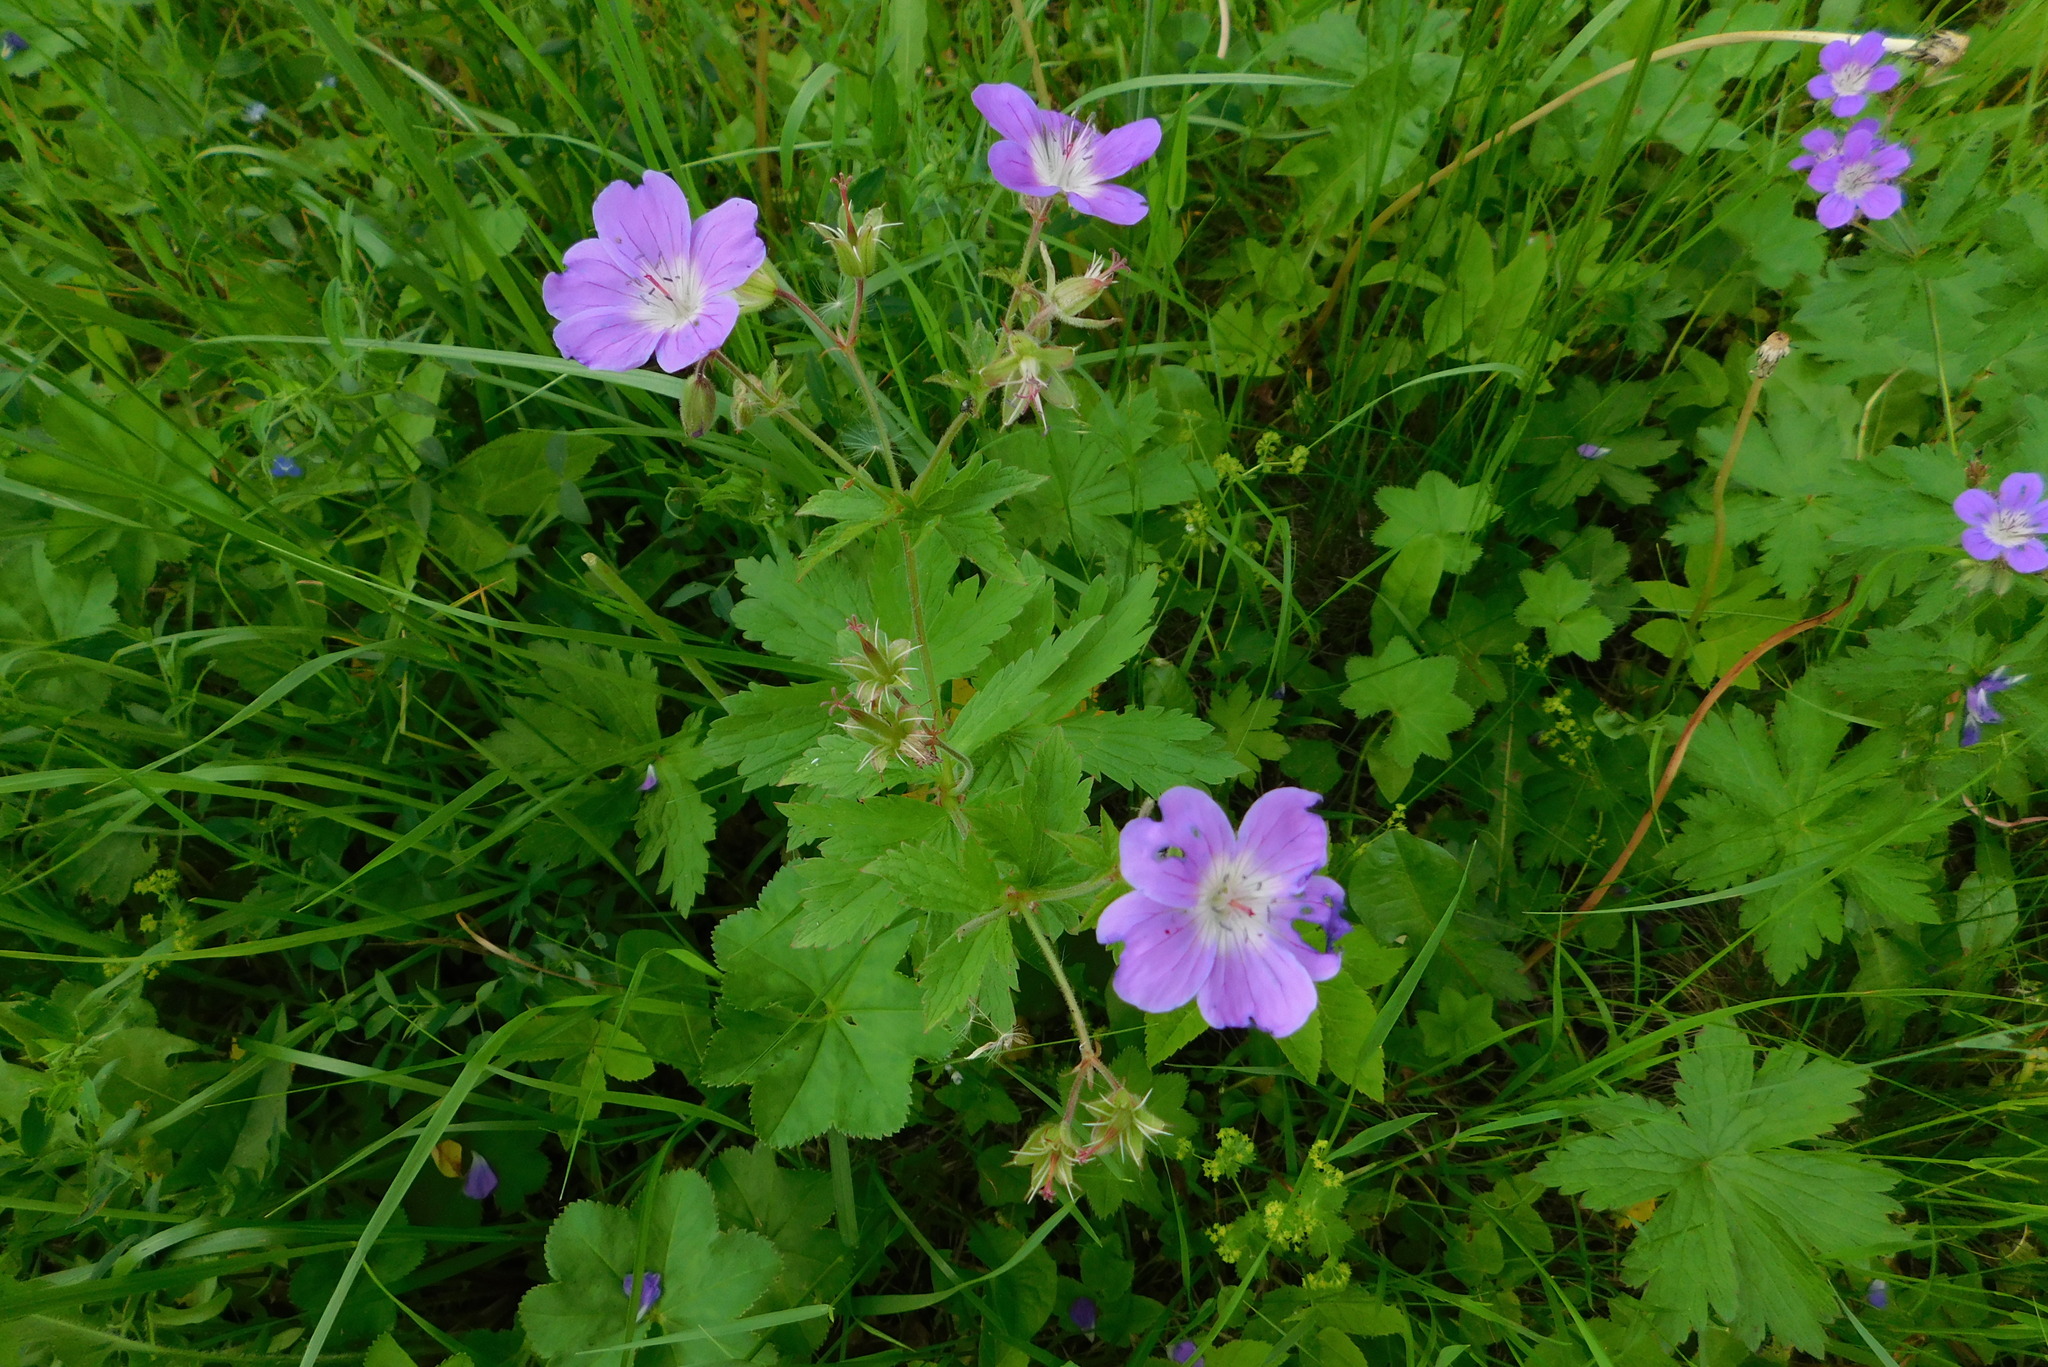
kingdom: Plantae
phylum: Tracheophyta
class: Magnoliopsida
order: Geraniales
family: Geraniaceae
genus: Geranium
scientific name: Geranium sylvaticum
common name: Wood crane's-bill
